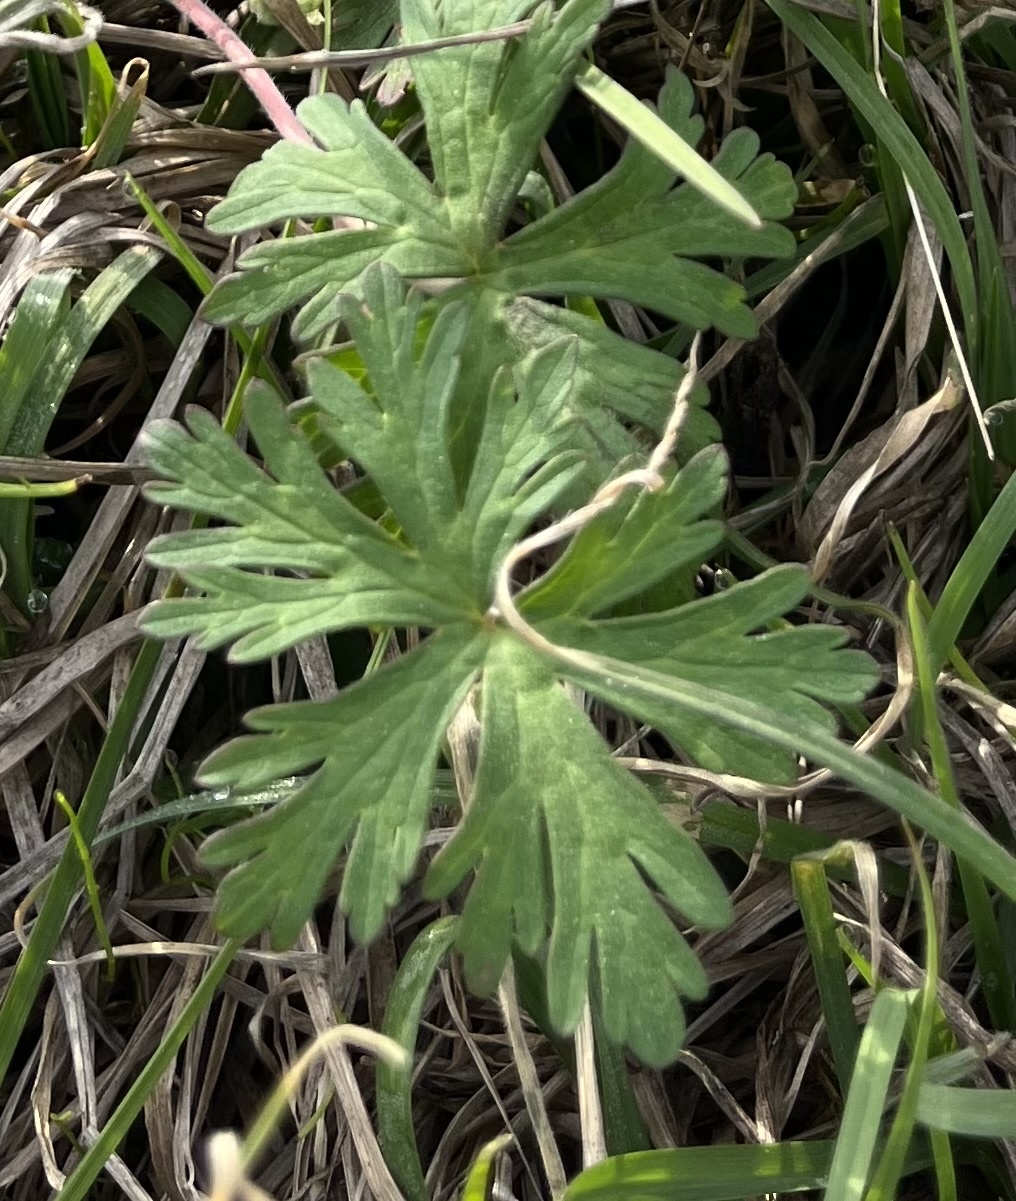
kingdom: Plantae
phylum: Tracheophyta
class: Magnoliopsida
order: Geraniales
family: Geraniaceae
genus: Geranium
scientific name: Geranium carolinianum
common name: Carolina crane's-bill
